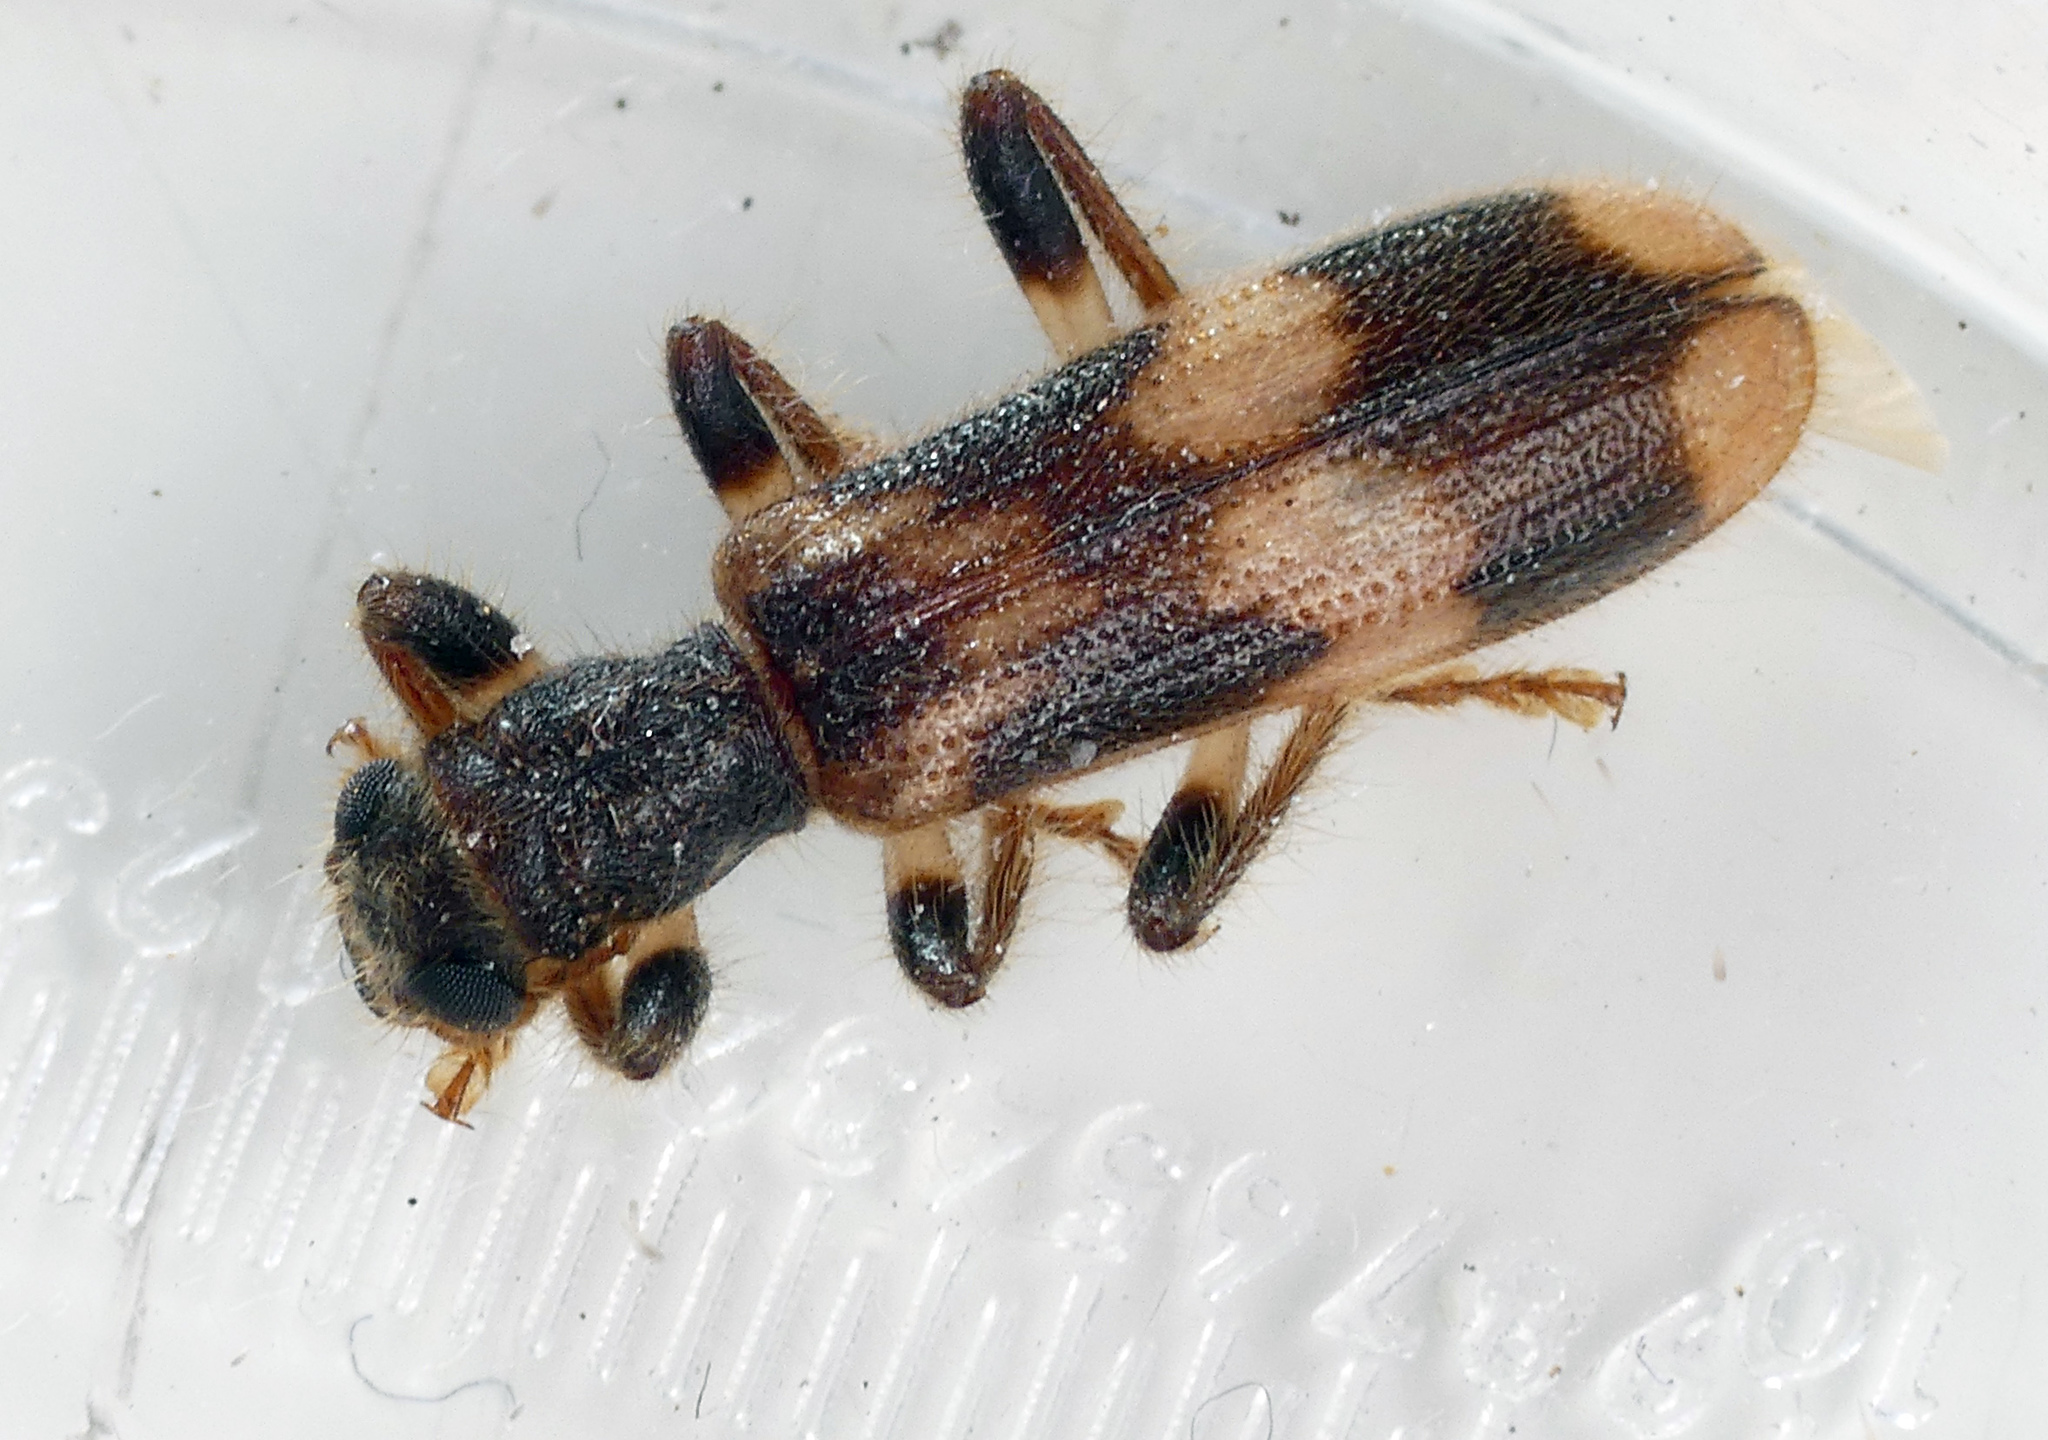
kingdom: Animalia
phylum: Arthropoda
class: Insecta
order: Coleoptera
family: Cleridae
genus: Opilo
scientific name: Opilo mollis
